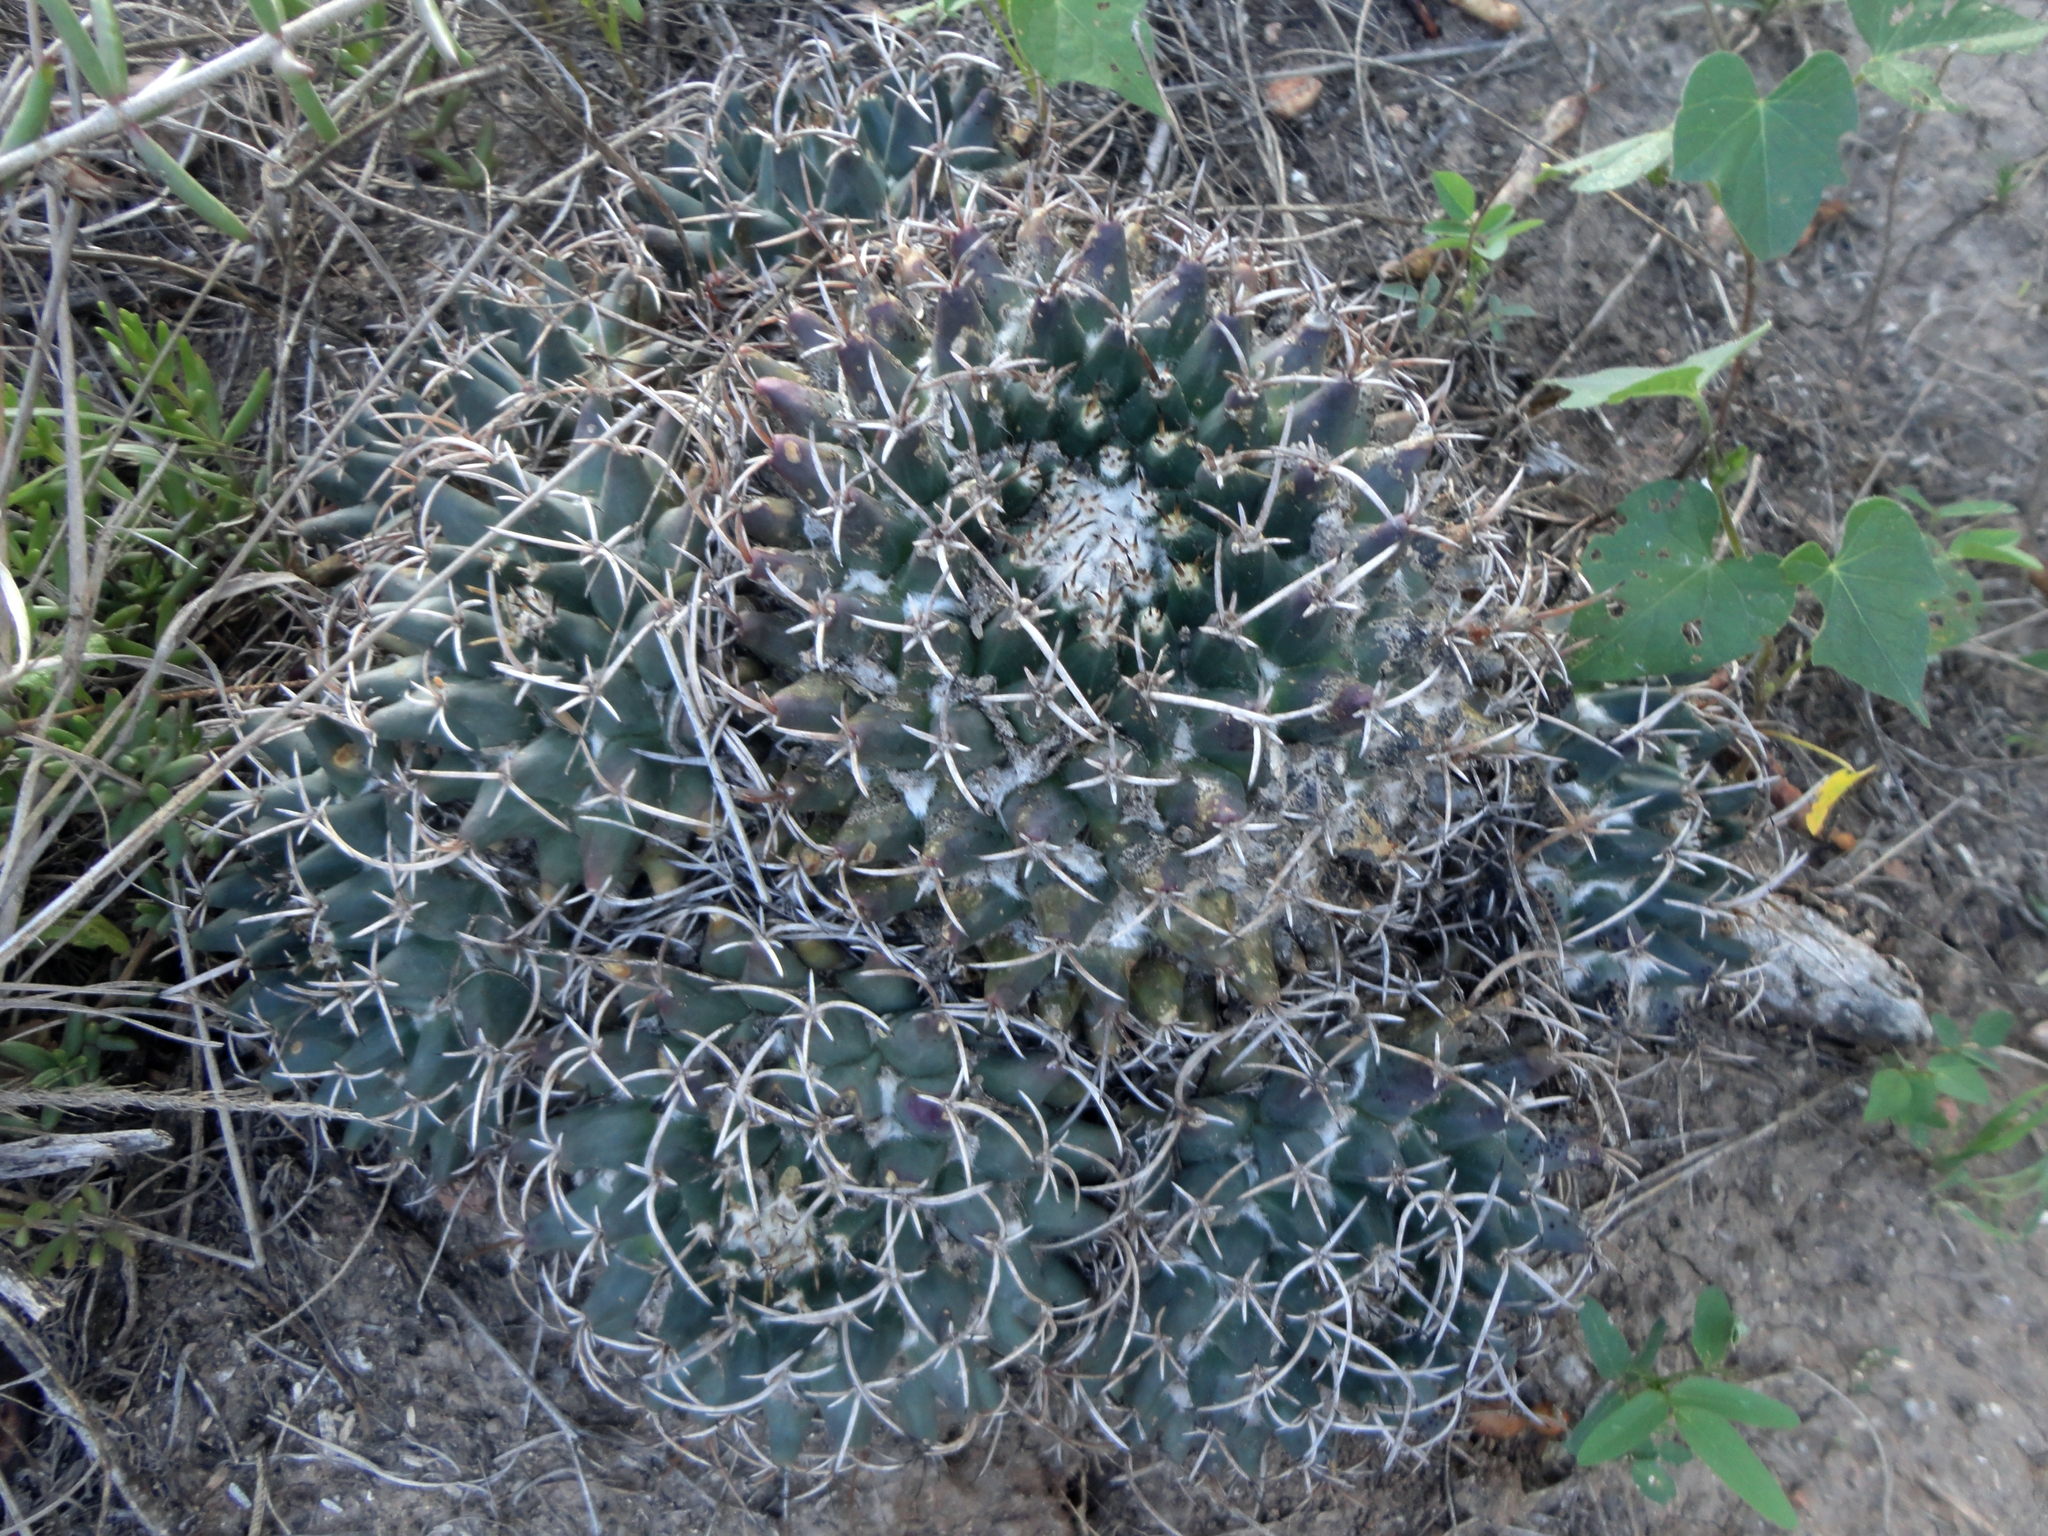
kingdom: Plantae
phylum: Tracheophyta
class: Magnoliopsida
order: Caryophyllales
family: Cactaceae
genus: Mammillaria
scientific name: Mammillaria magnimamma
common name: Mexican pincushion
